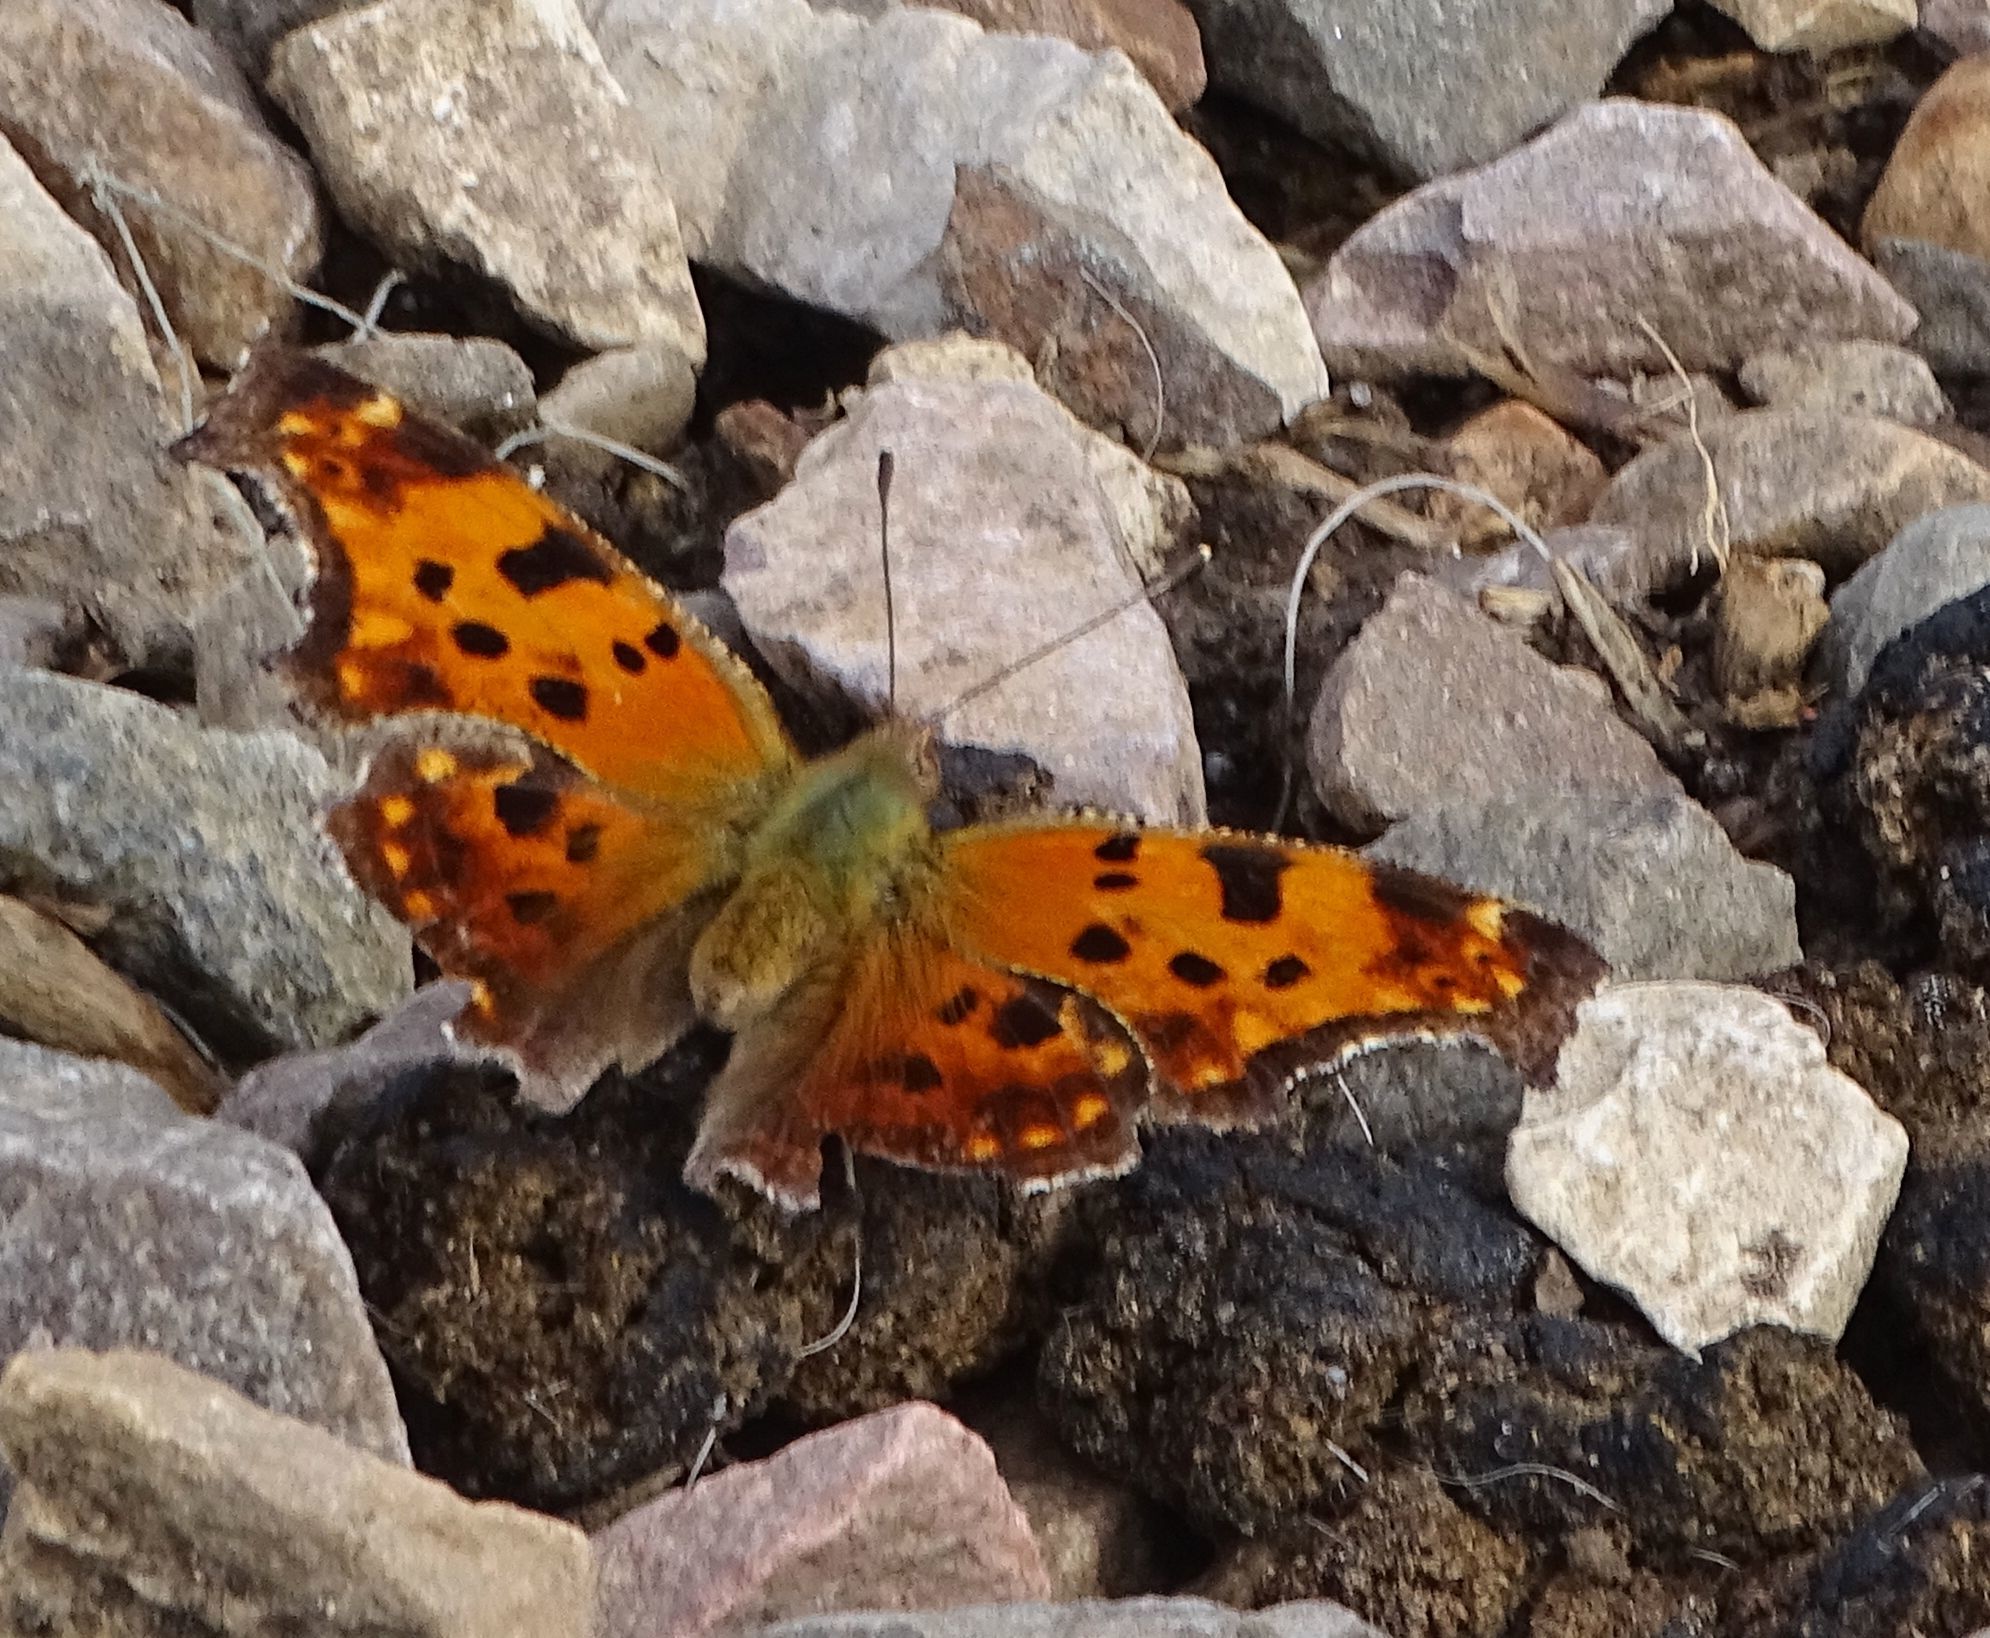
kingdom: Animalia
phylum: Arthropoda
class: Insecta
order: Lepidoptera
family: Nymphalidae
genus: Polygonia
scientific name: Polygonia comma
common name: Eastern comma
